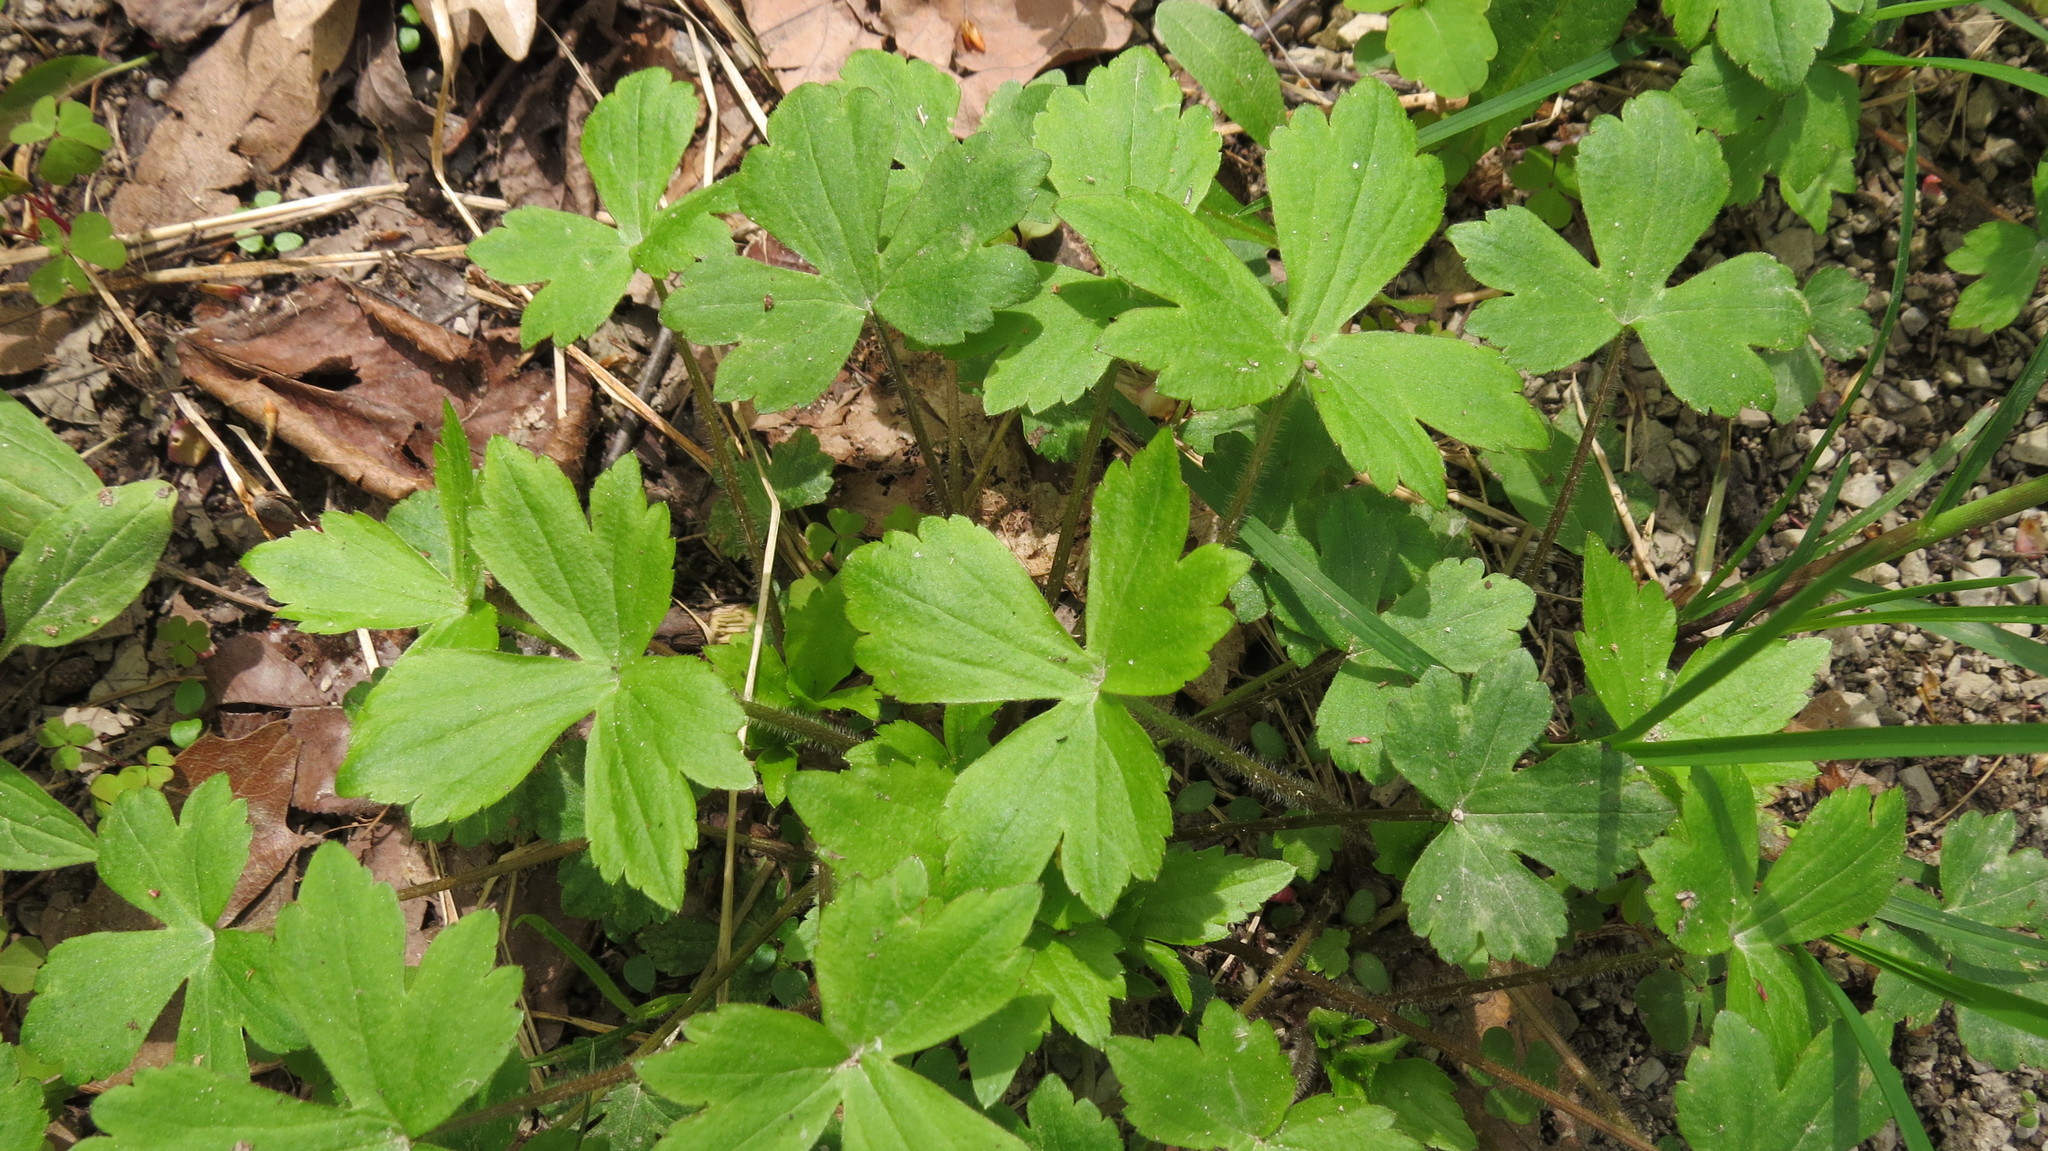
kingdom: Plantae
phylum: Tracheophyta
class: Magnoliopsida
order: Ranunculales
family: Ranunculaceae
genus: Ranunculus
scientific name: Ranunculus recurvatus
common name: Blisterwort
